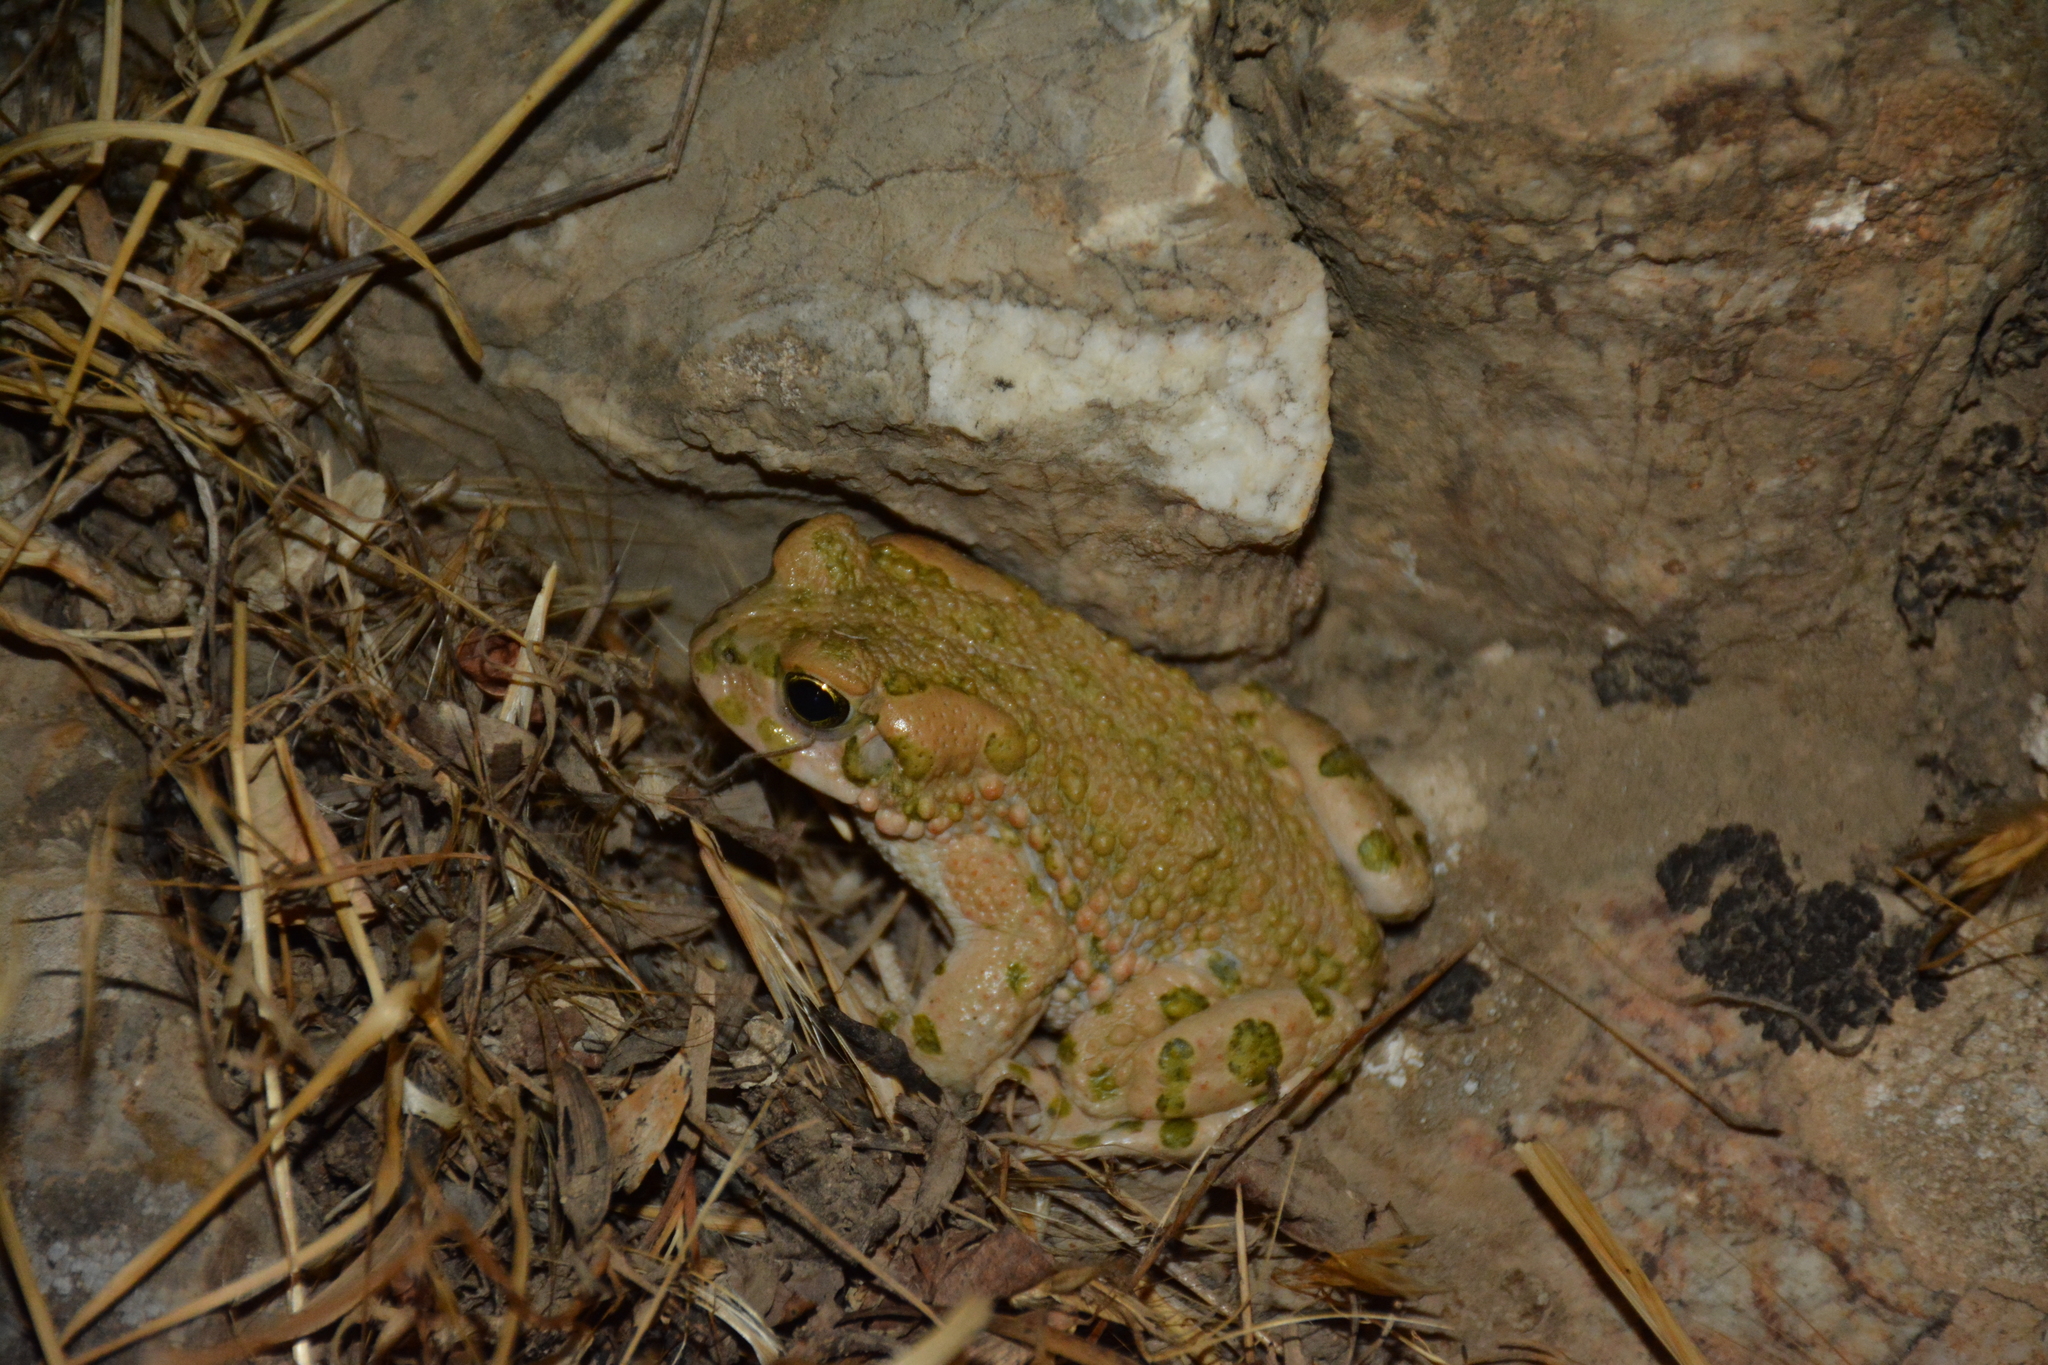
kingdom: Animalia
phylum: Chordata
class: Amphibia
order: Anura
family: Bufonidae
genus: Bufotes
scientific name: Bufotes viridis
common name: European green toad
